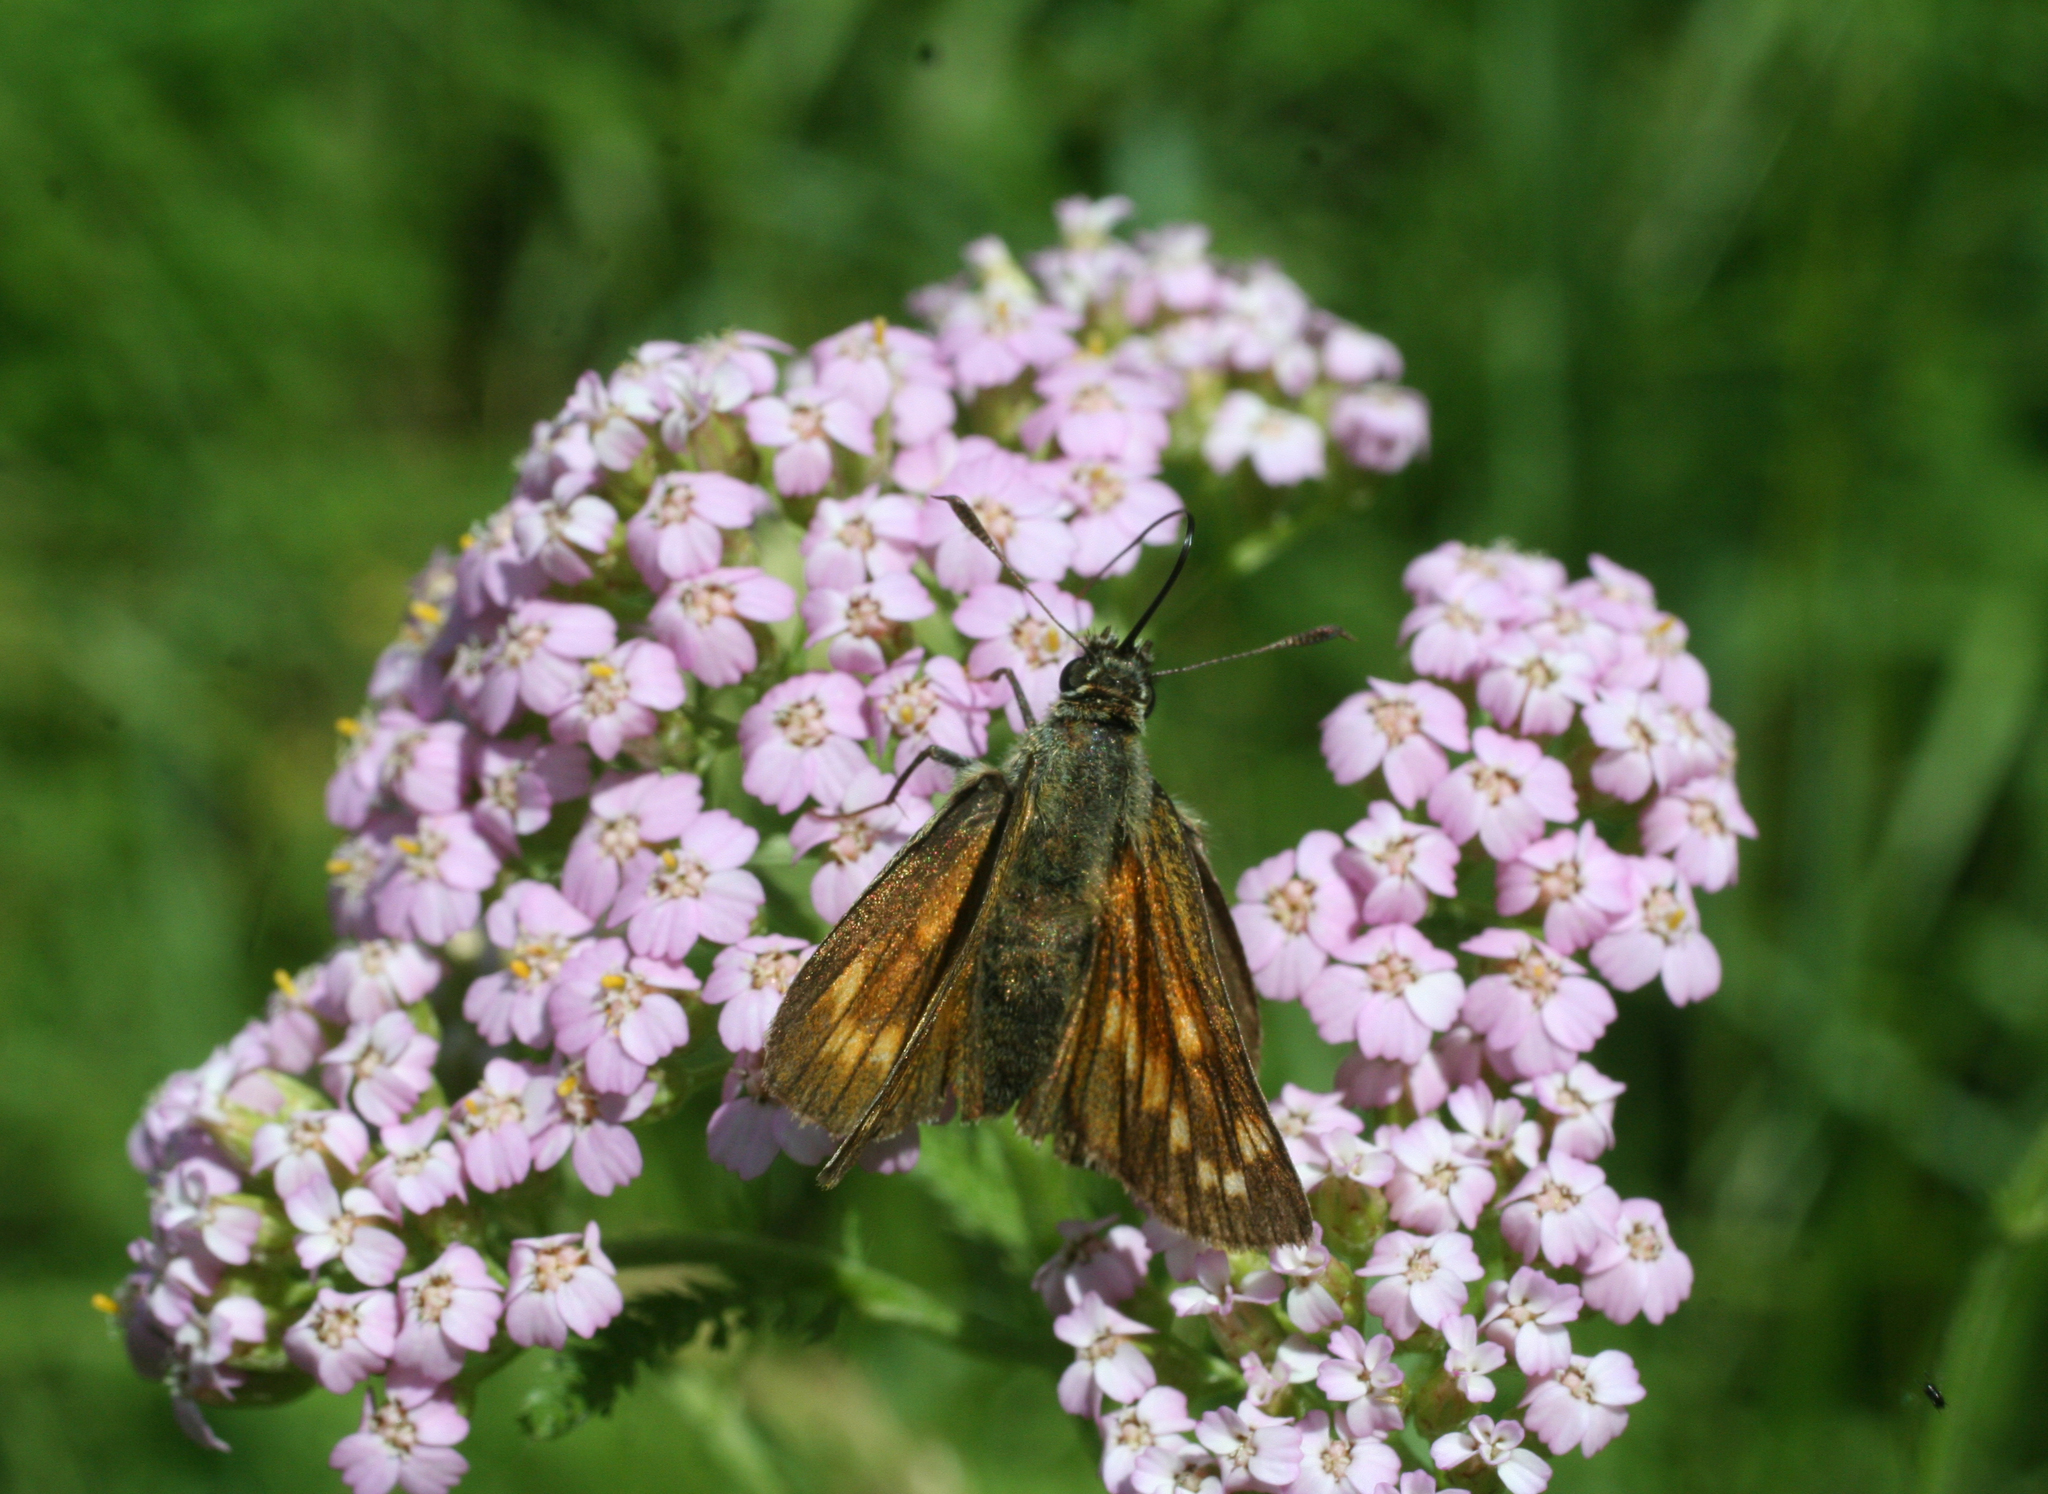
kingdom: Animalia
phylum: Arthropoda
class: Insecta
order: Lepidoptera
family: Hesperiidae
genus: Ochlodes
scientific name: Ochlodes venata
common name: Large skipper
